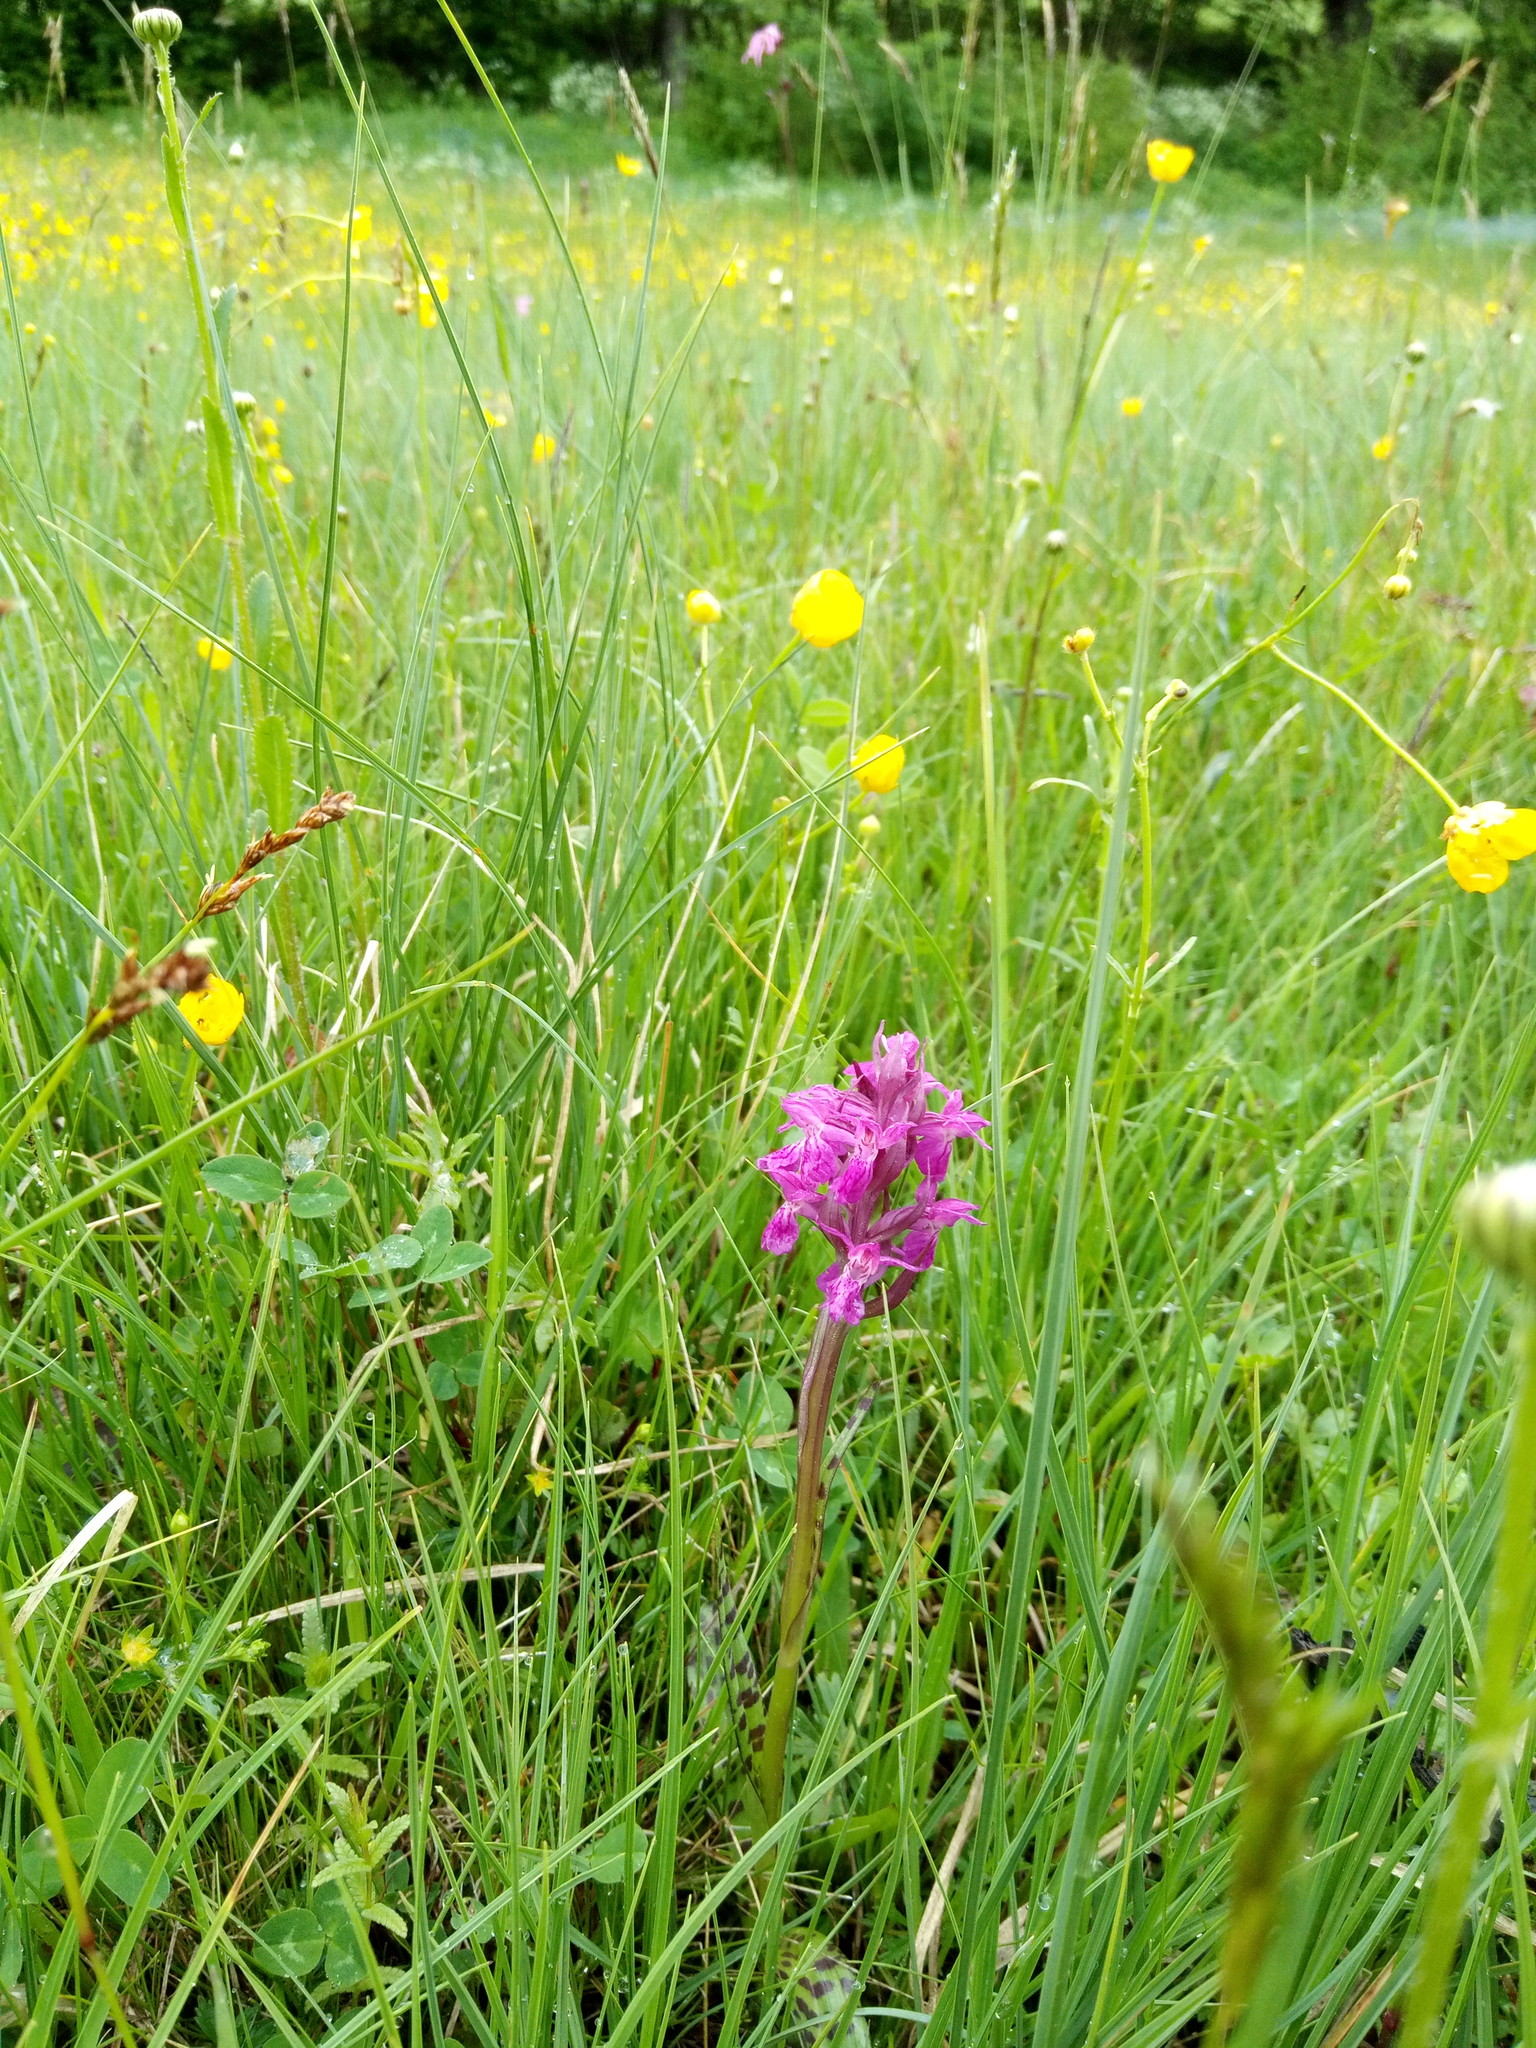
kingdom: Plantae
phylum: Tracheophyta
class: Liliopsida
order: Asparagales
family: Orchidaceae
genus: Dactylorhiza
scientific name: Dactylorhiza majalis
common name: Marsh orchid
